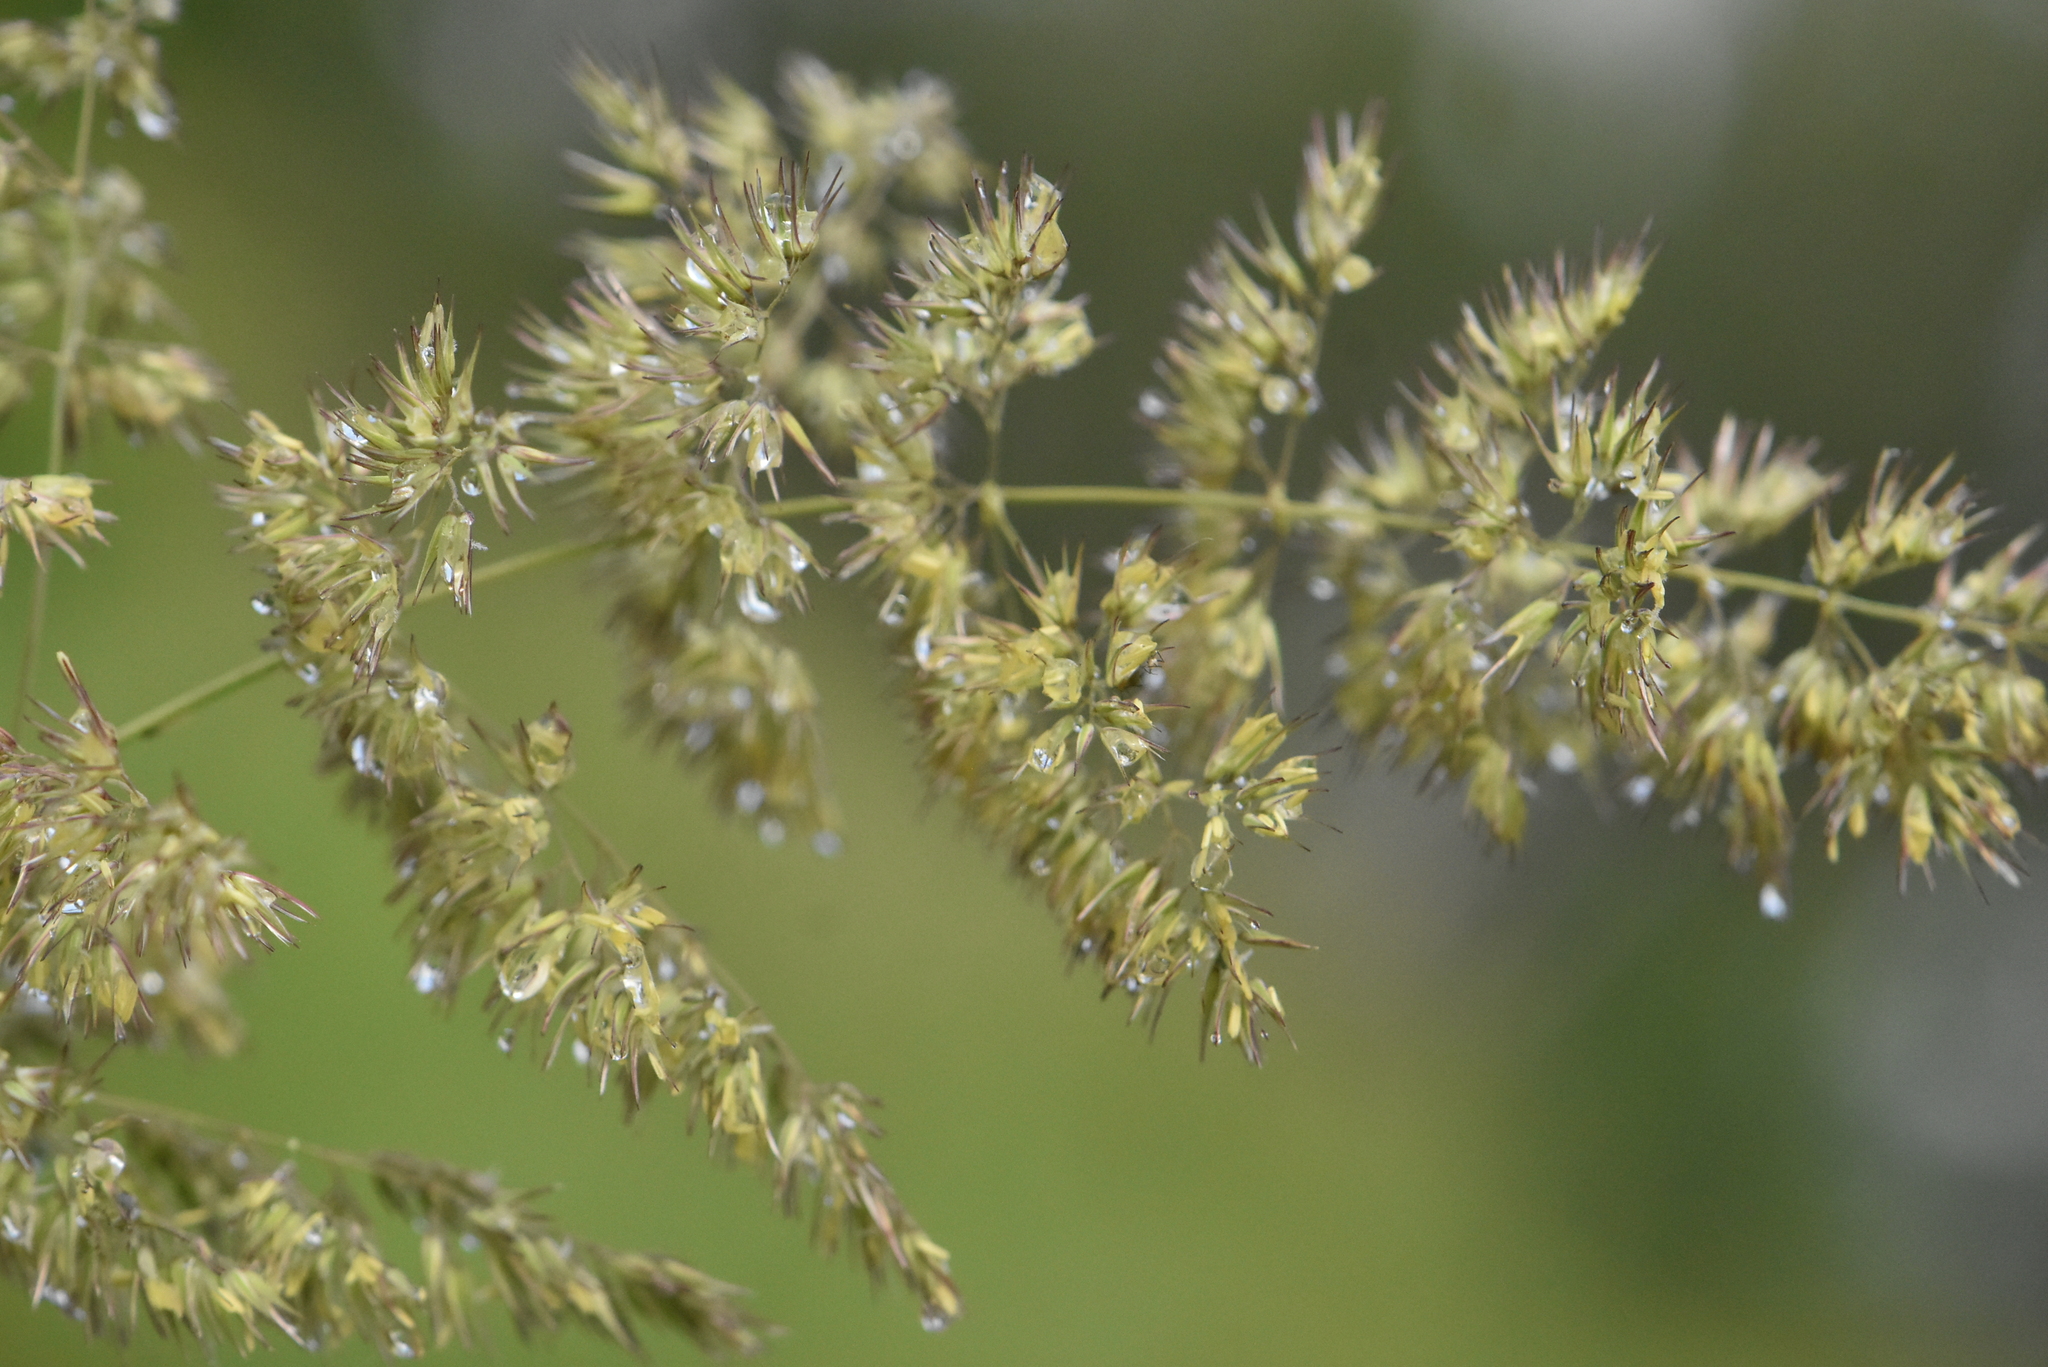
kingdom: Plantae
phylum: Tracheophyta
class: Liliopsida
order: Poales
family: Poaceae
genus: Calamagrostis
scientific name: Calamagrostis epigejos
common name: Wood small-reed
